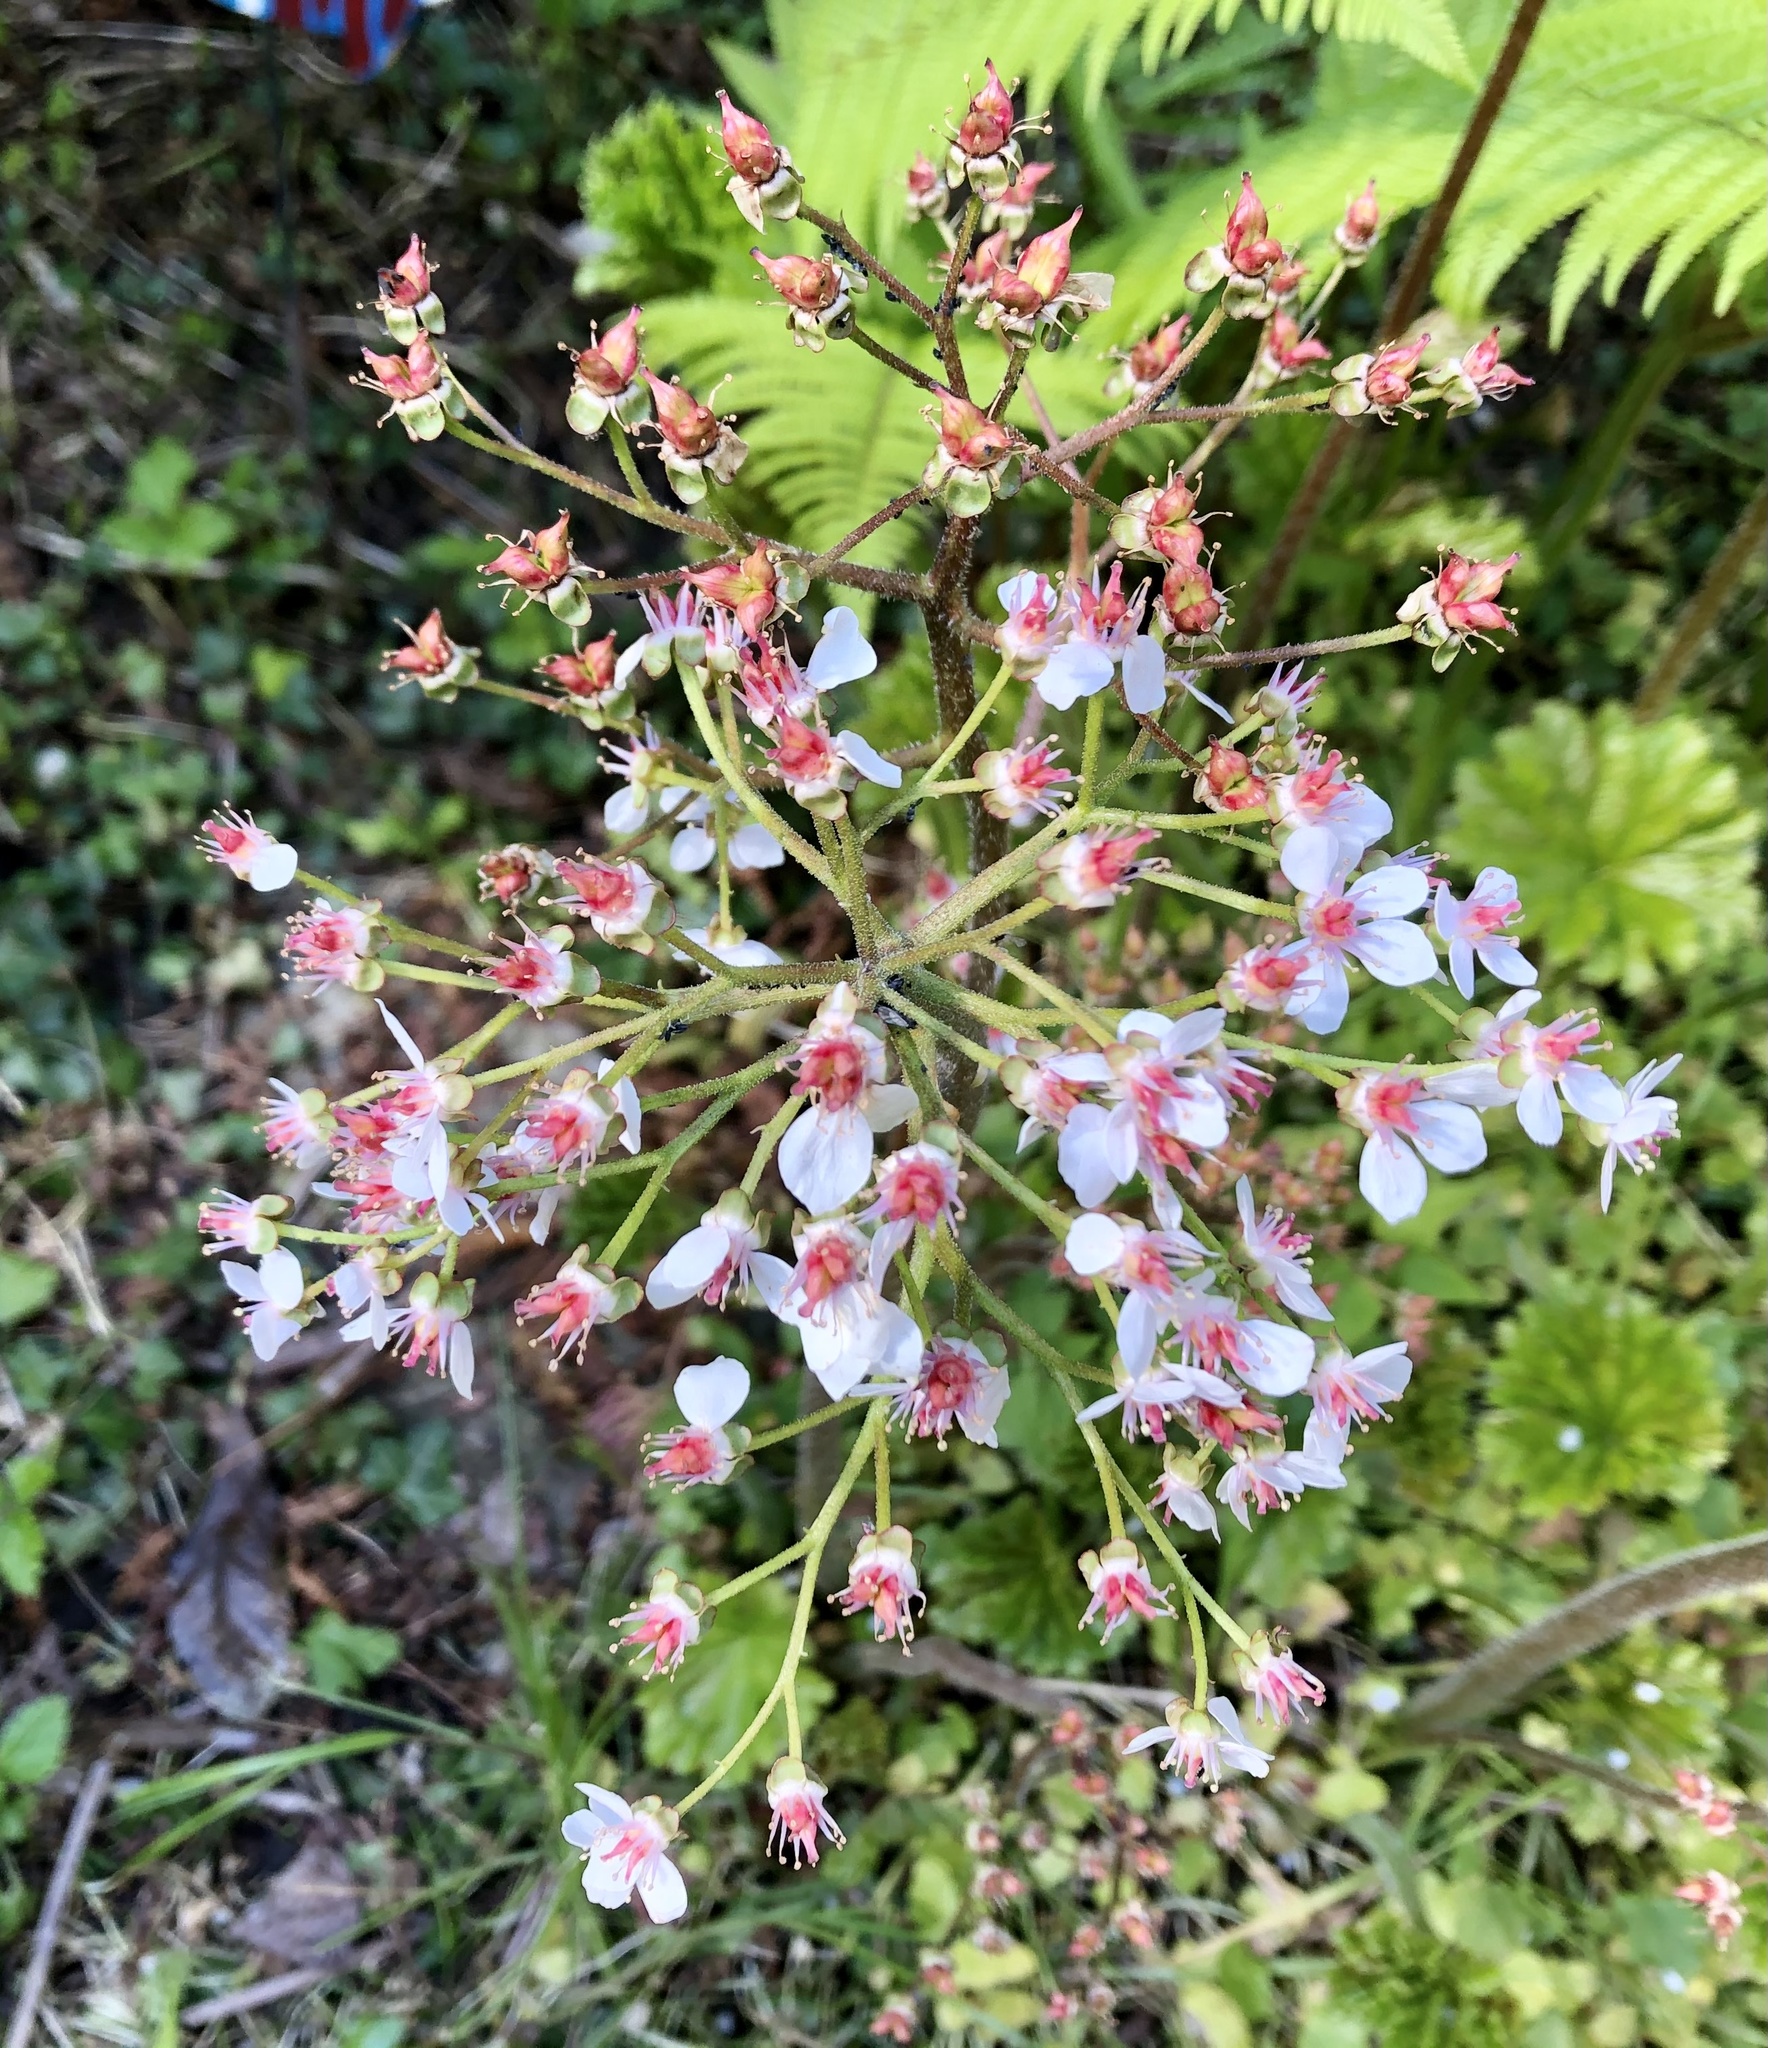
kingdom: Plantae
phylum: Tracheophyta
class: Magnoliopsida
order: Saxifragales
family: Saxifragaceae
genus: Darmera
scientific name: Darmera peltata
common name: Indian-rhubarb
